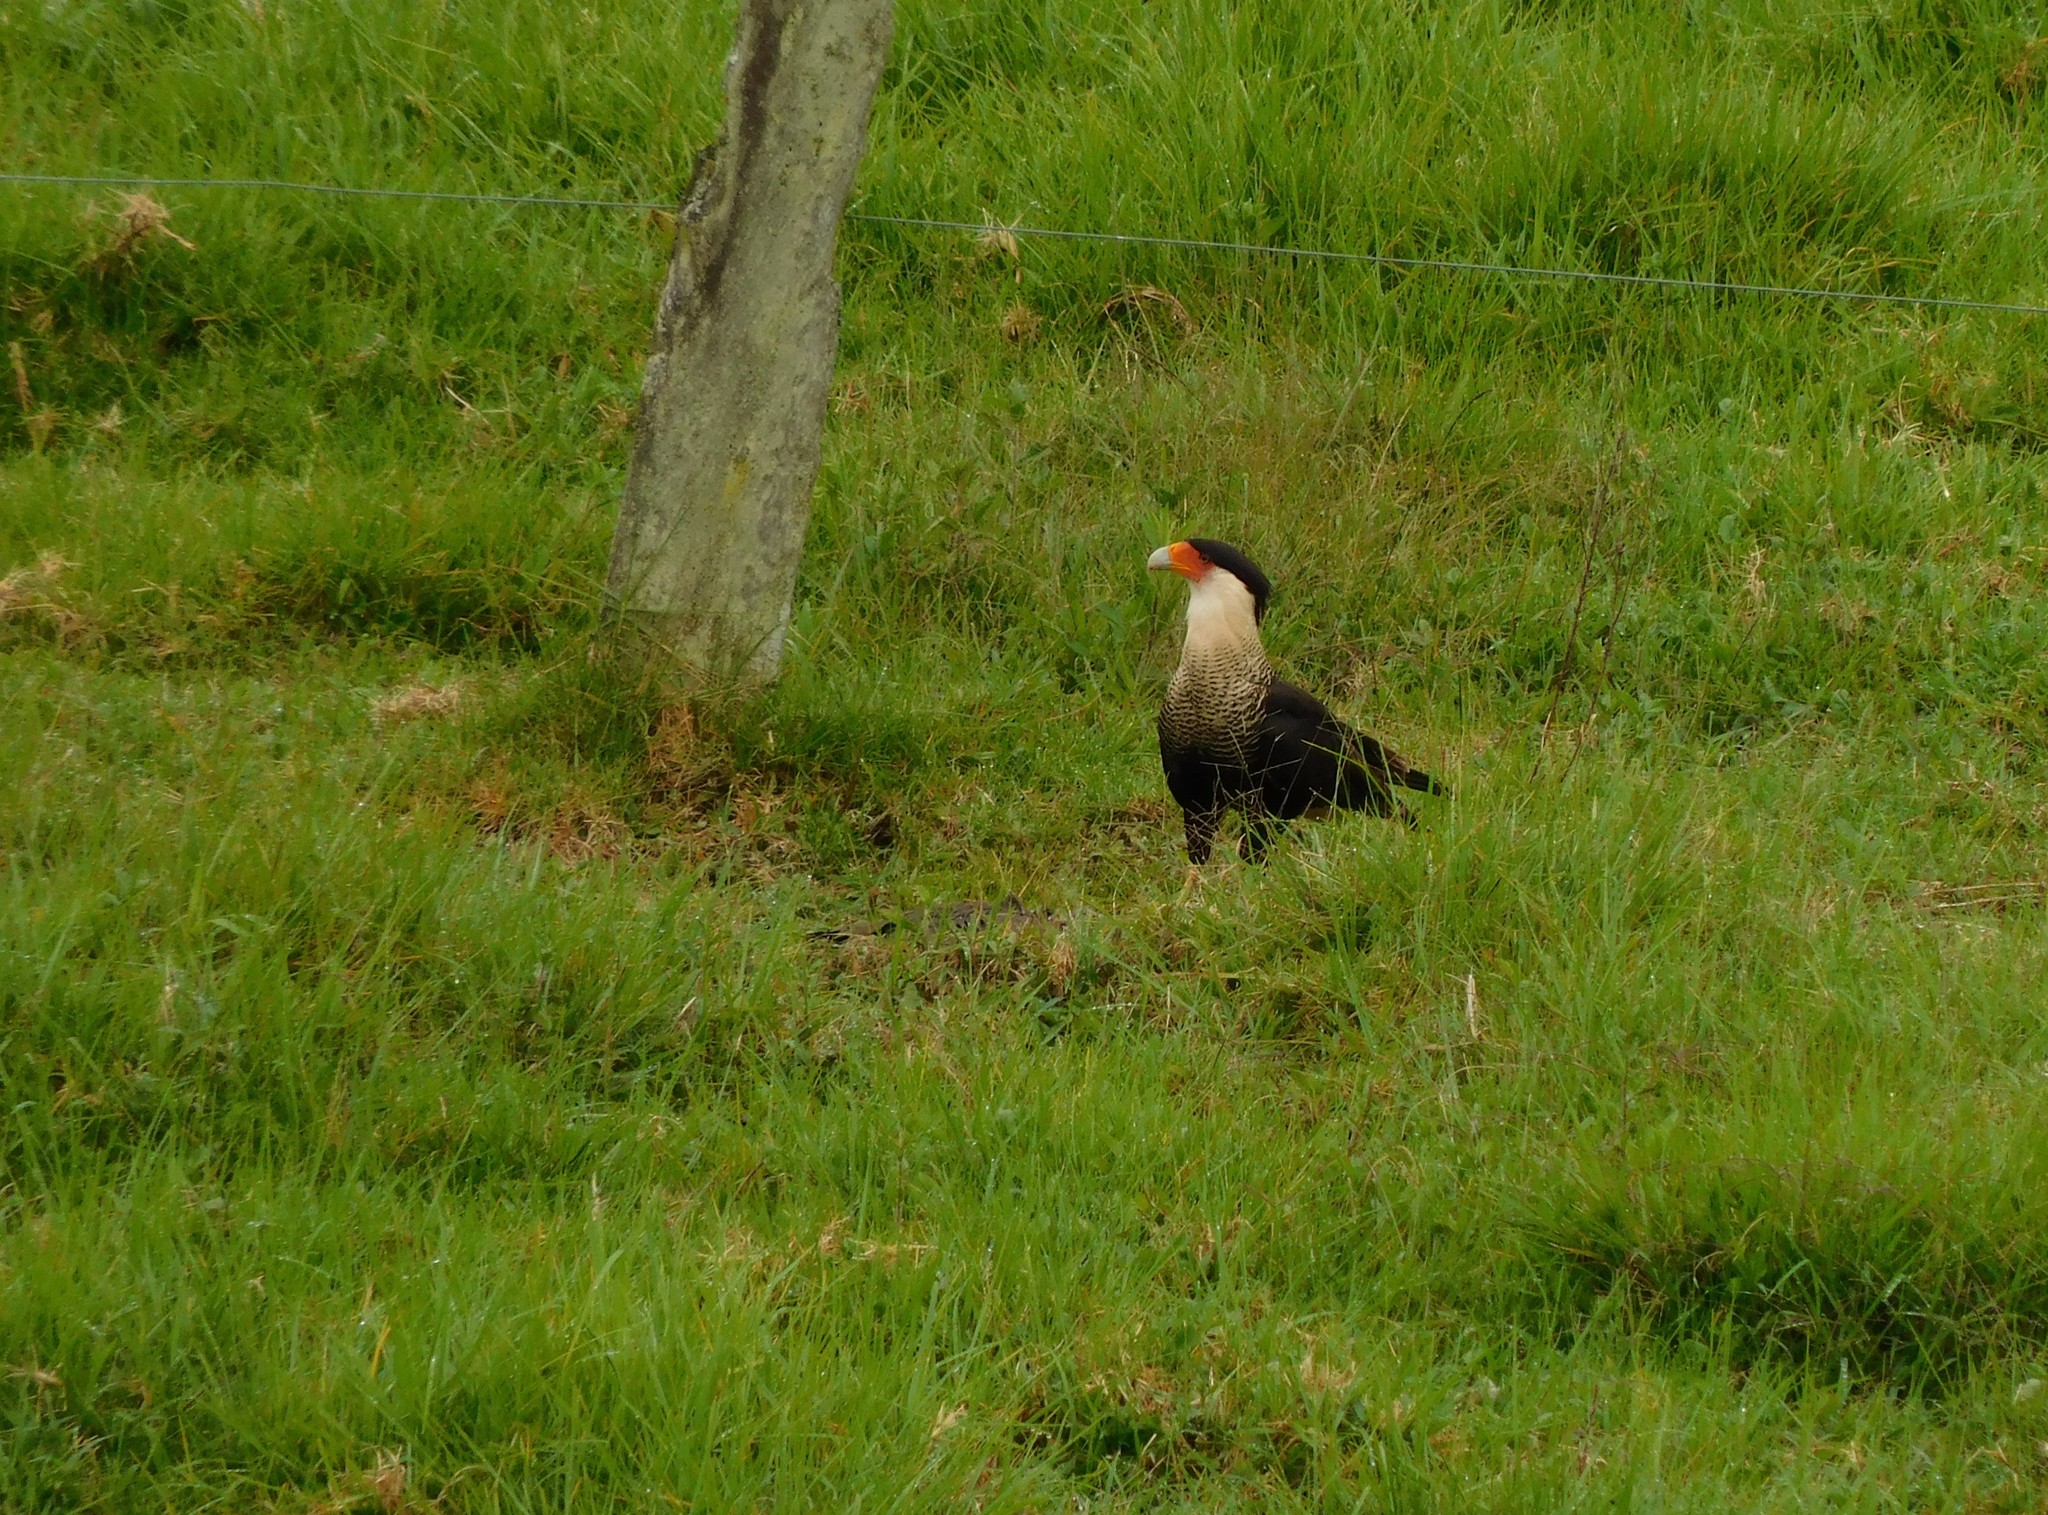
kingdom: Animalia
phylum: Chordata
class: Aves
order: Falconiformes
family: Falconidae
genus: Caracara
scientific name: Caracara plancus
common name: Southern caracara
